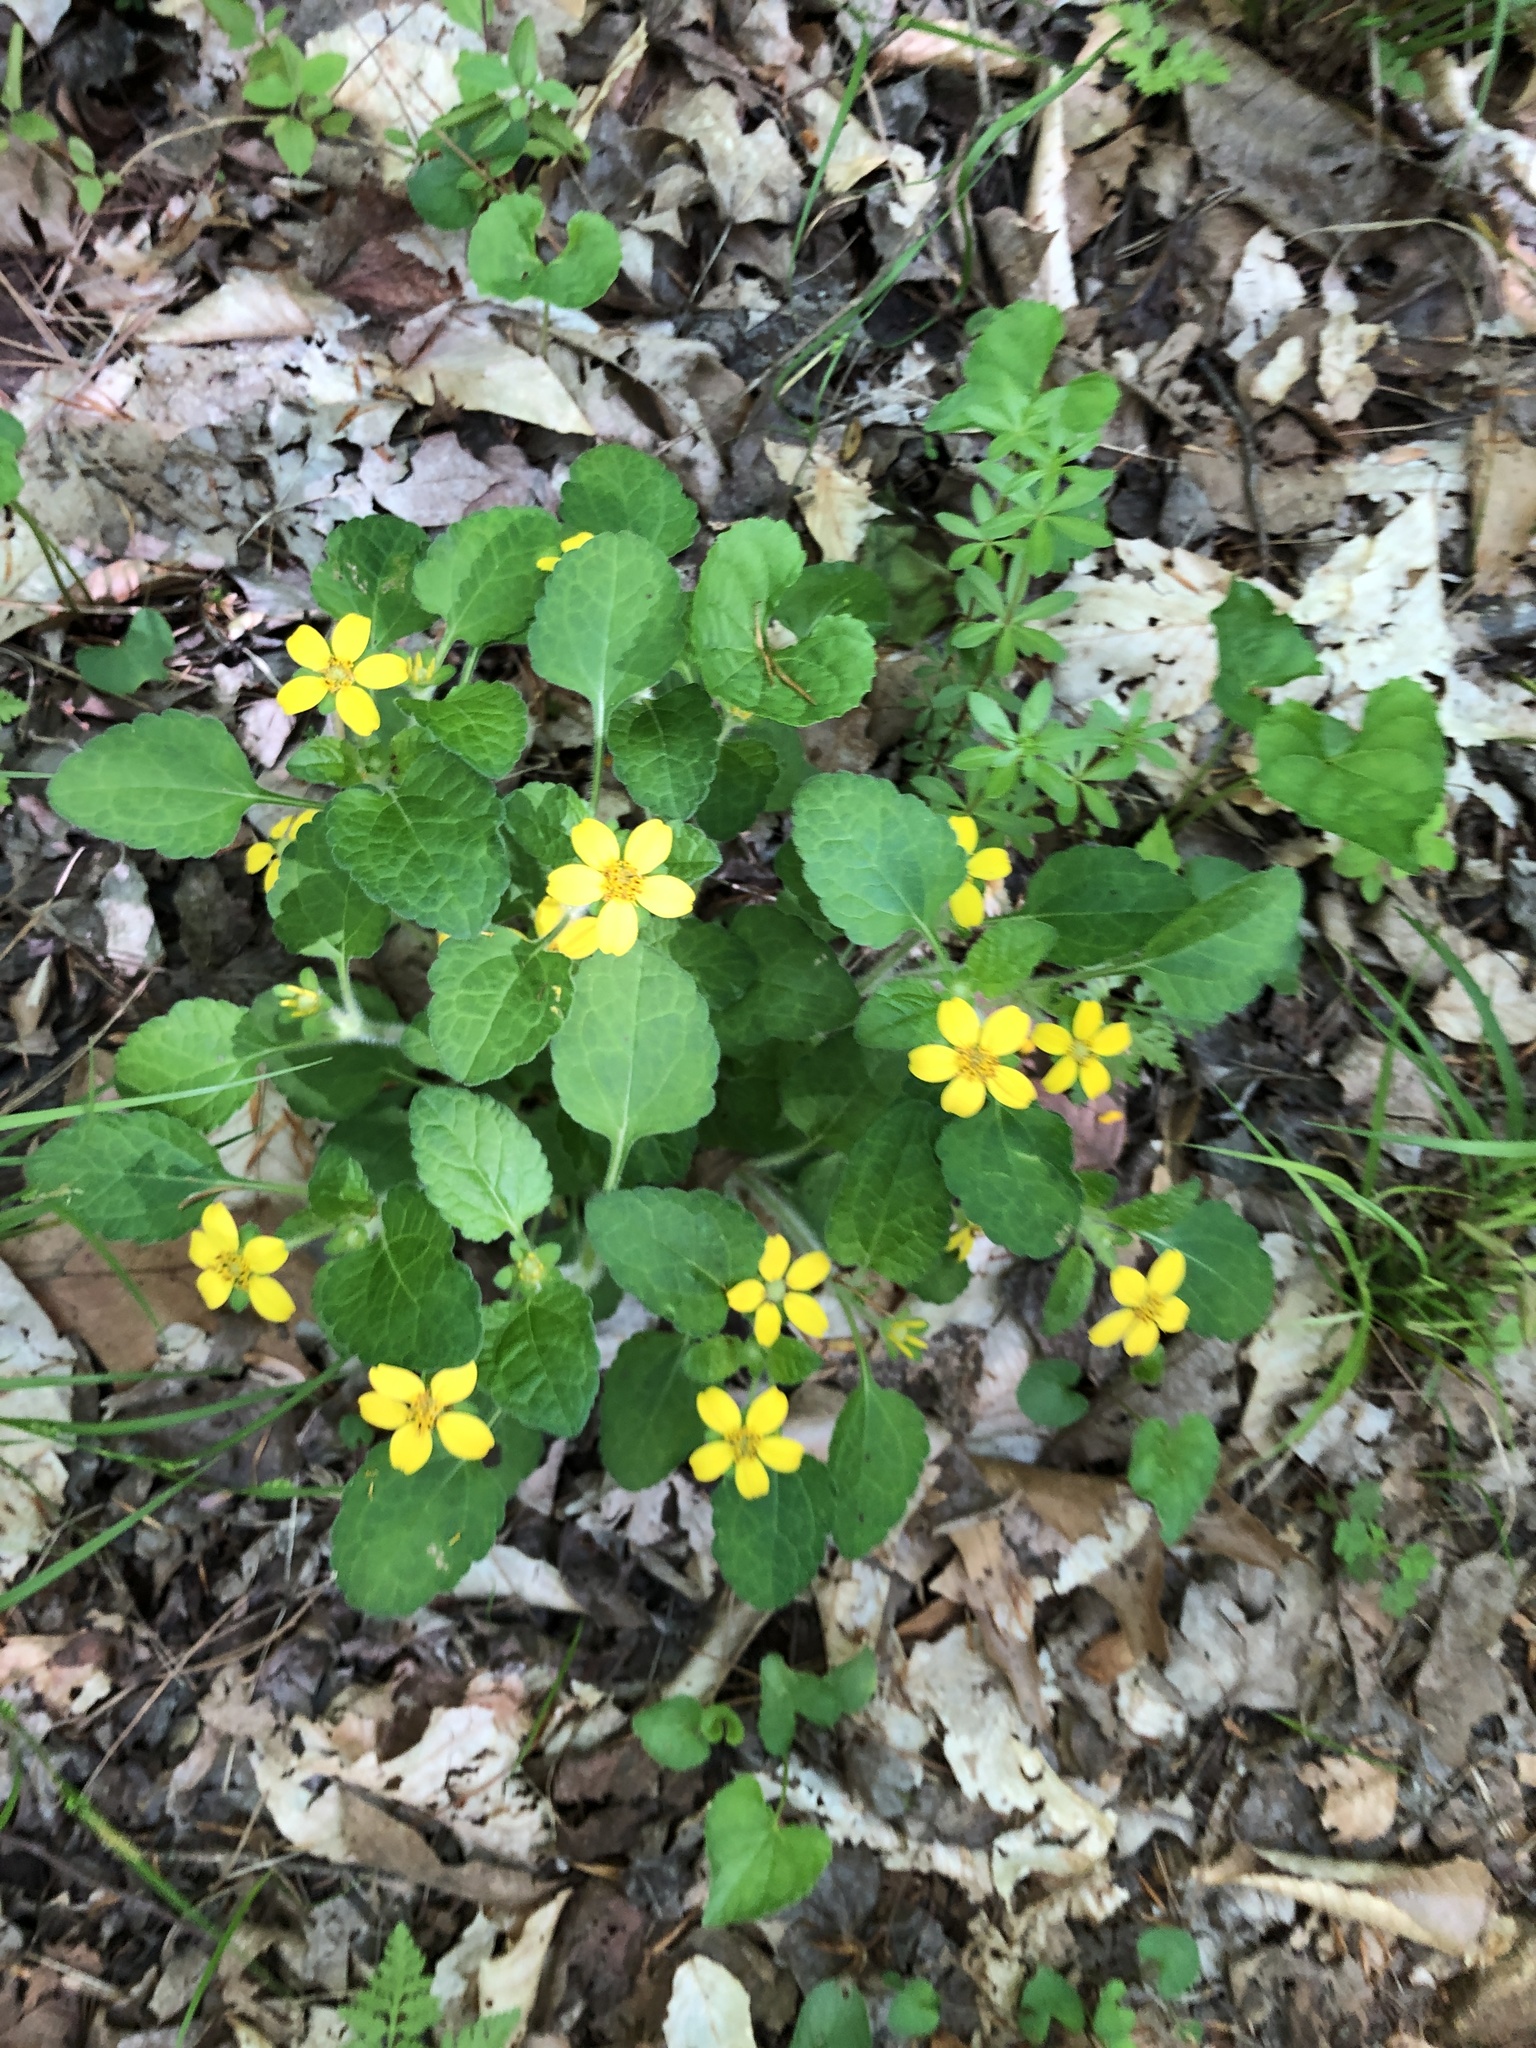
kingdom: Plantae
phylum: Tracheophyta
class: Magnoliopsida
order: Asterales
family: Asteraceae
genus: Chrysogonum
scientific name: Chrysogonum virginianum
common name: Golden-knee
